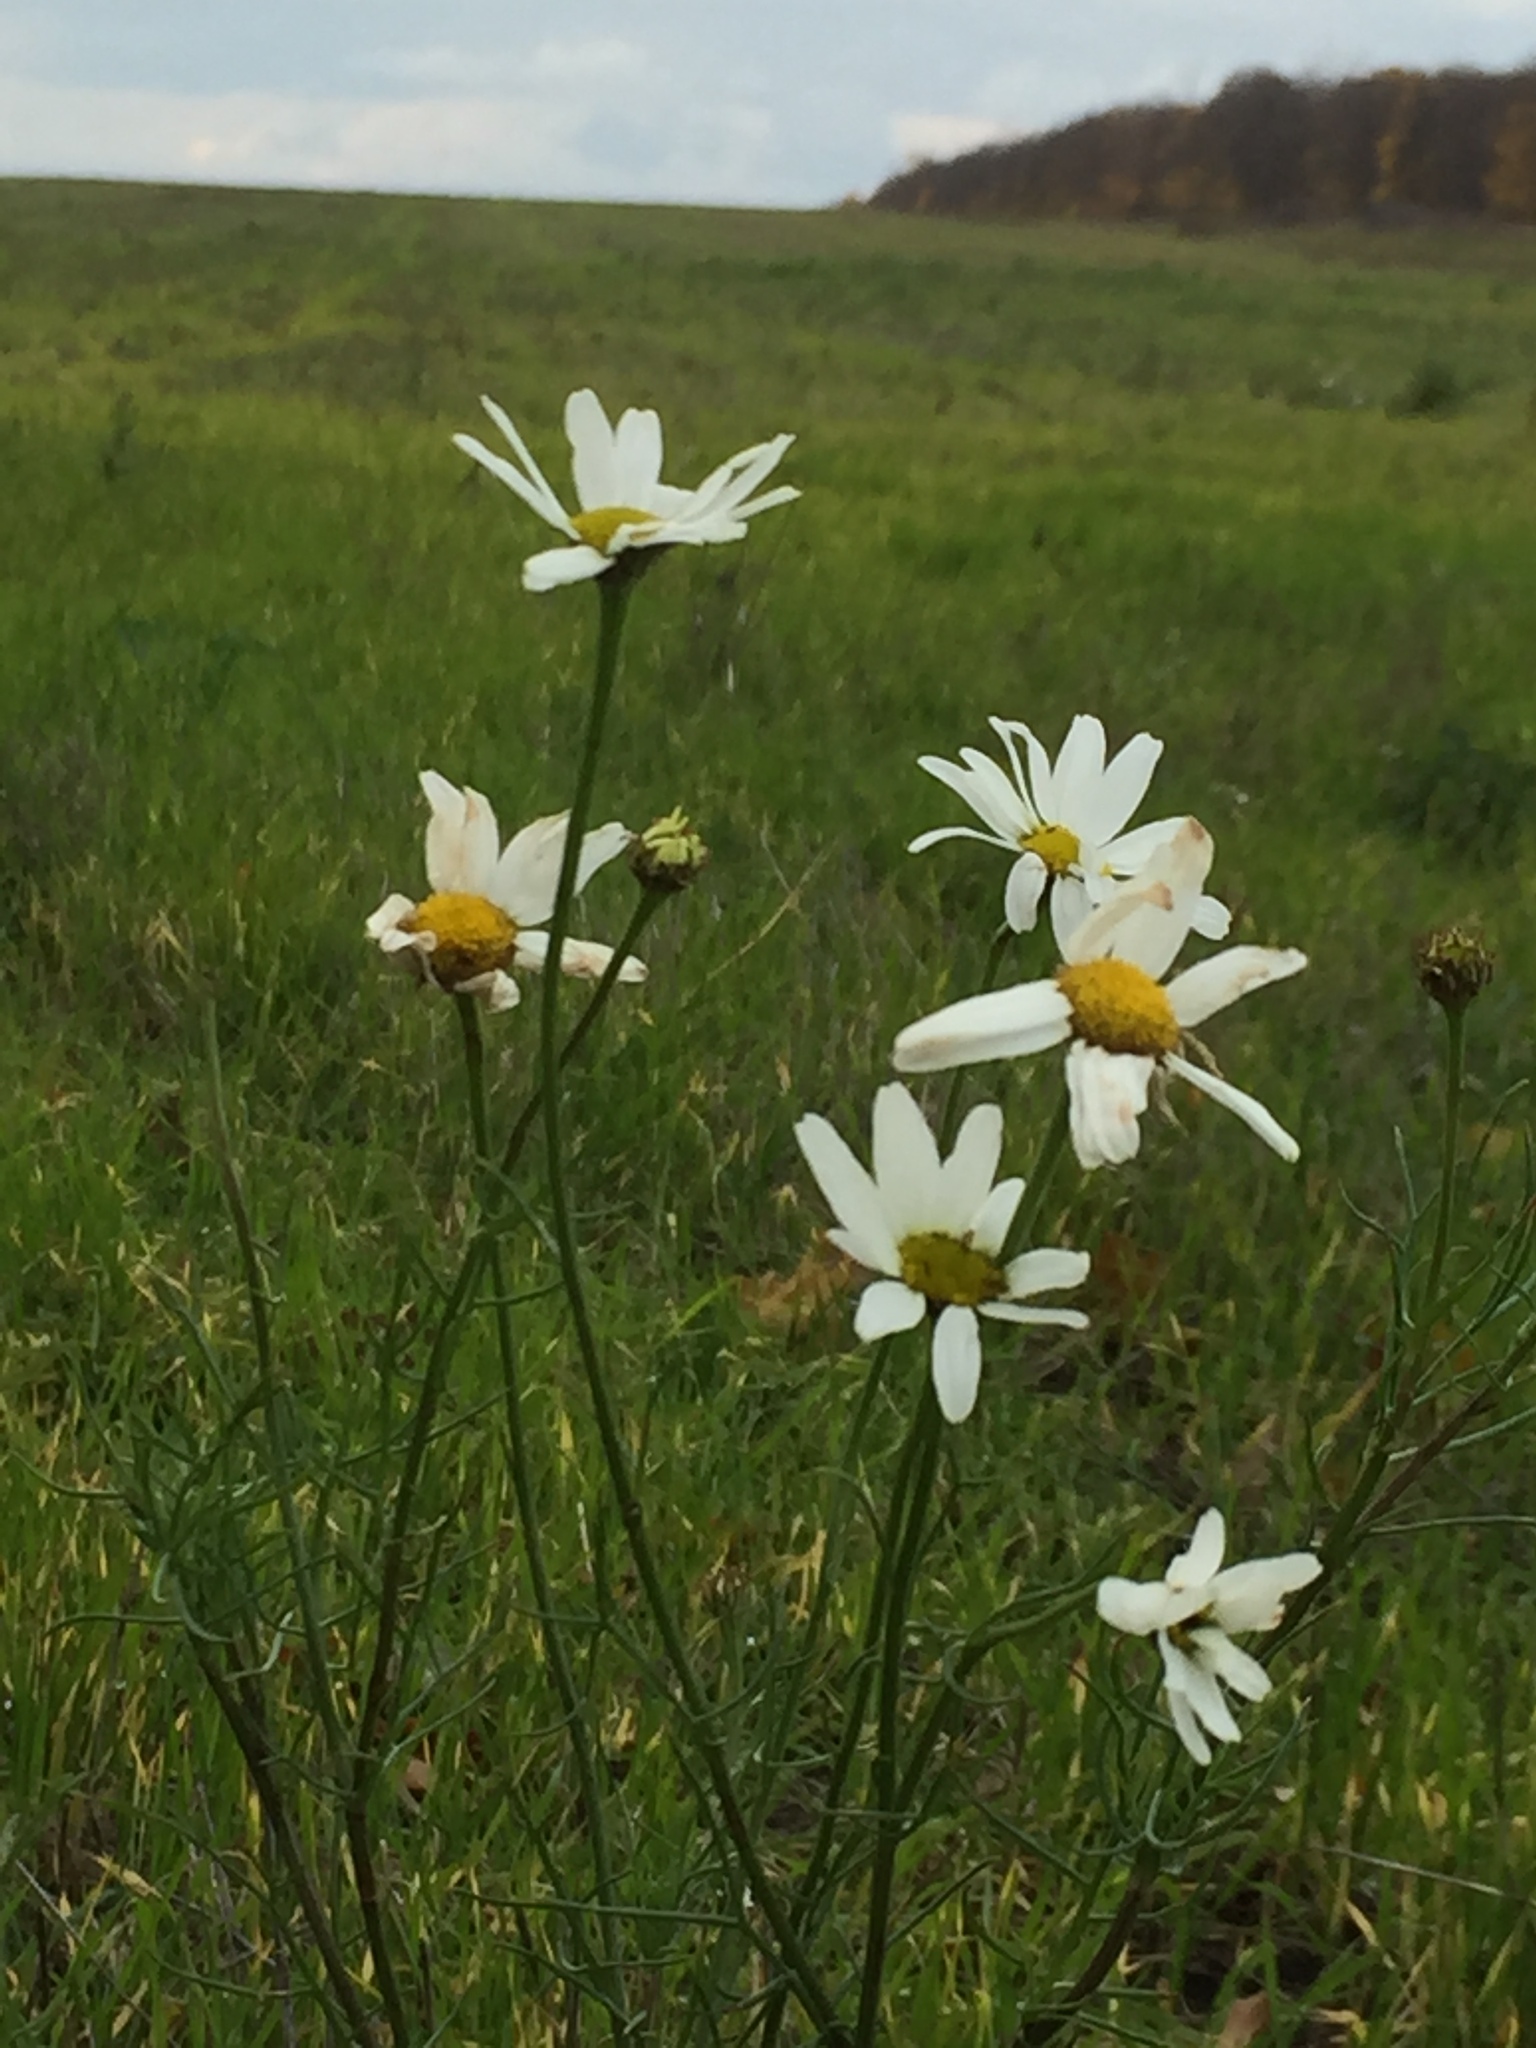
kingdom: Plantae
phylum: Tracheophyta
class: Magnoliopsida
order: Asterales
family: Asteraceae
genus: Tripleurospermum
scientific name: Tripleurospermum inodorum
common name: Scentless mayweed
